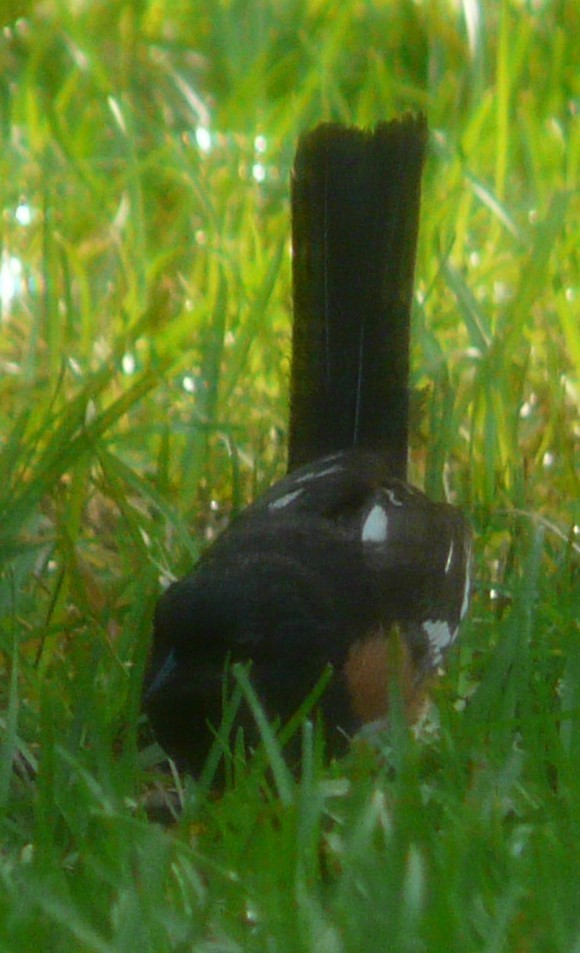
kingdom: Animalia
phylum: Chordata
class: Aves
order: Passeriformes
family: Passerellidae
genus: Pipilo
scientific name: Pipilo erythrophthalmus
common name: Eastern towhee
